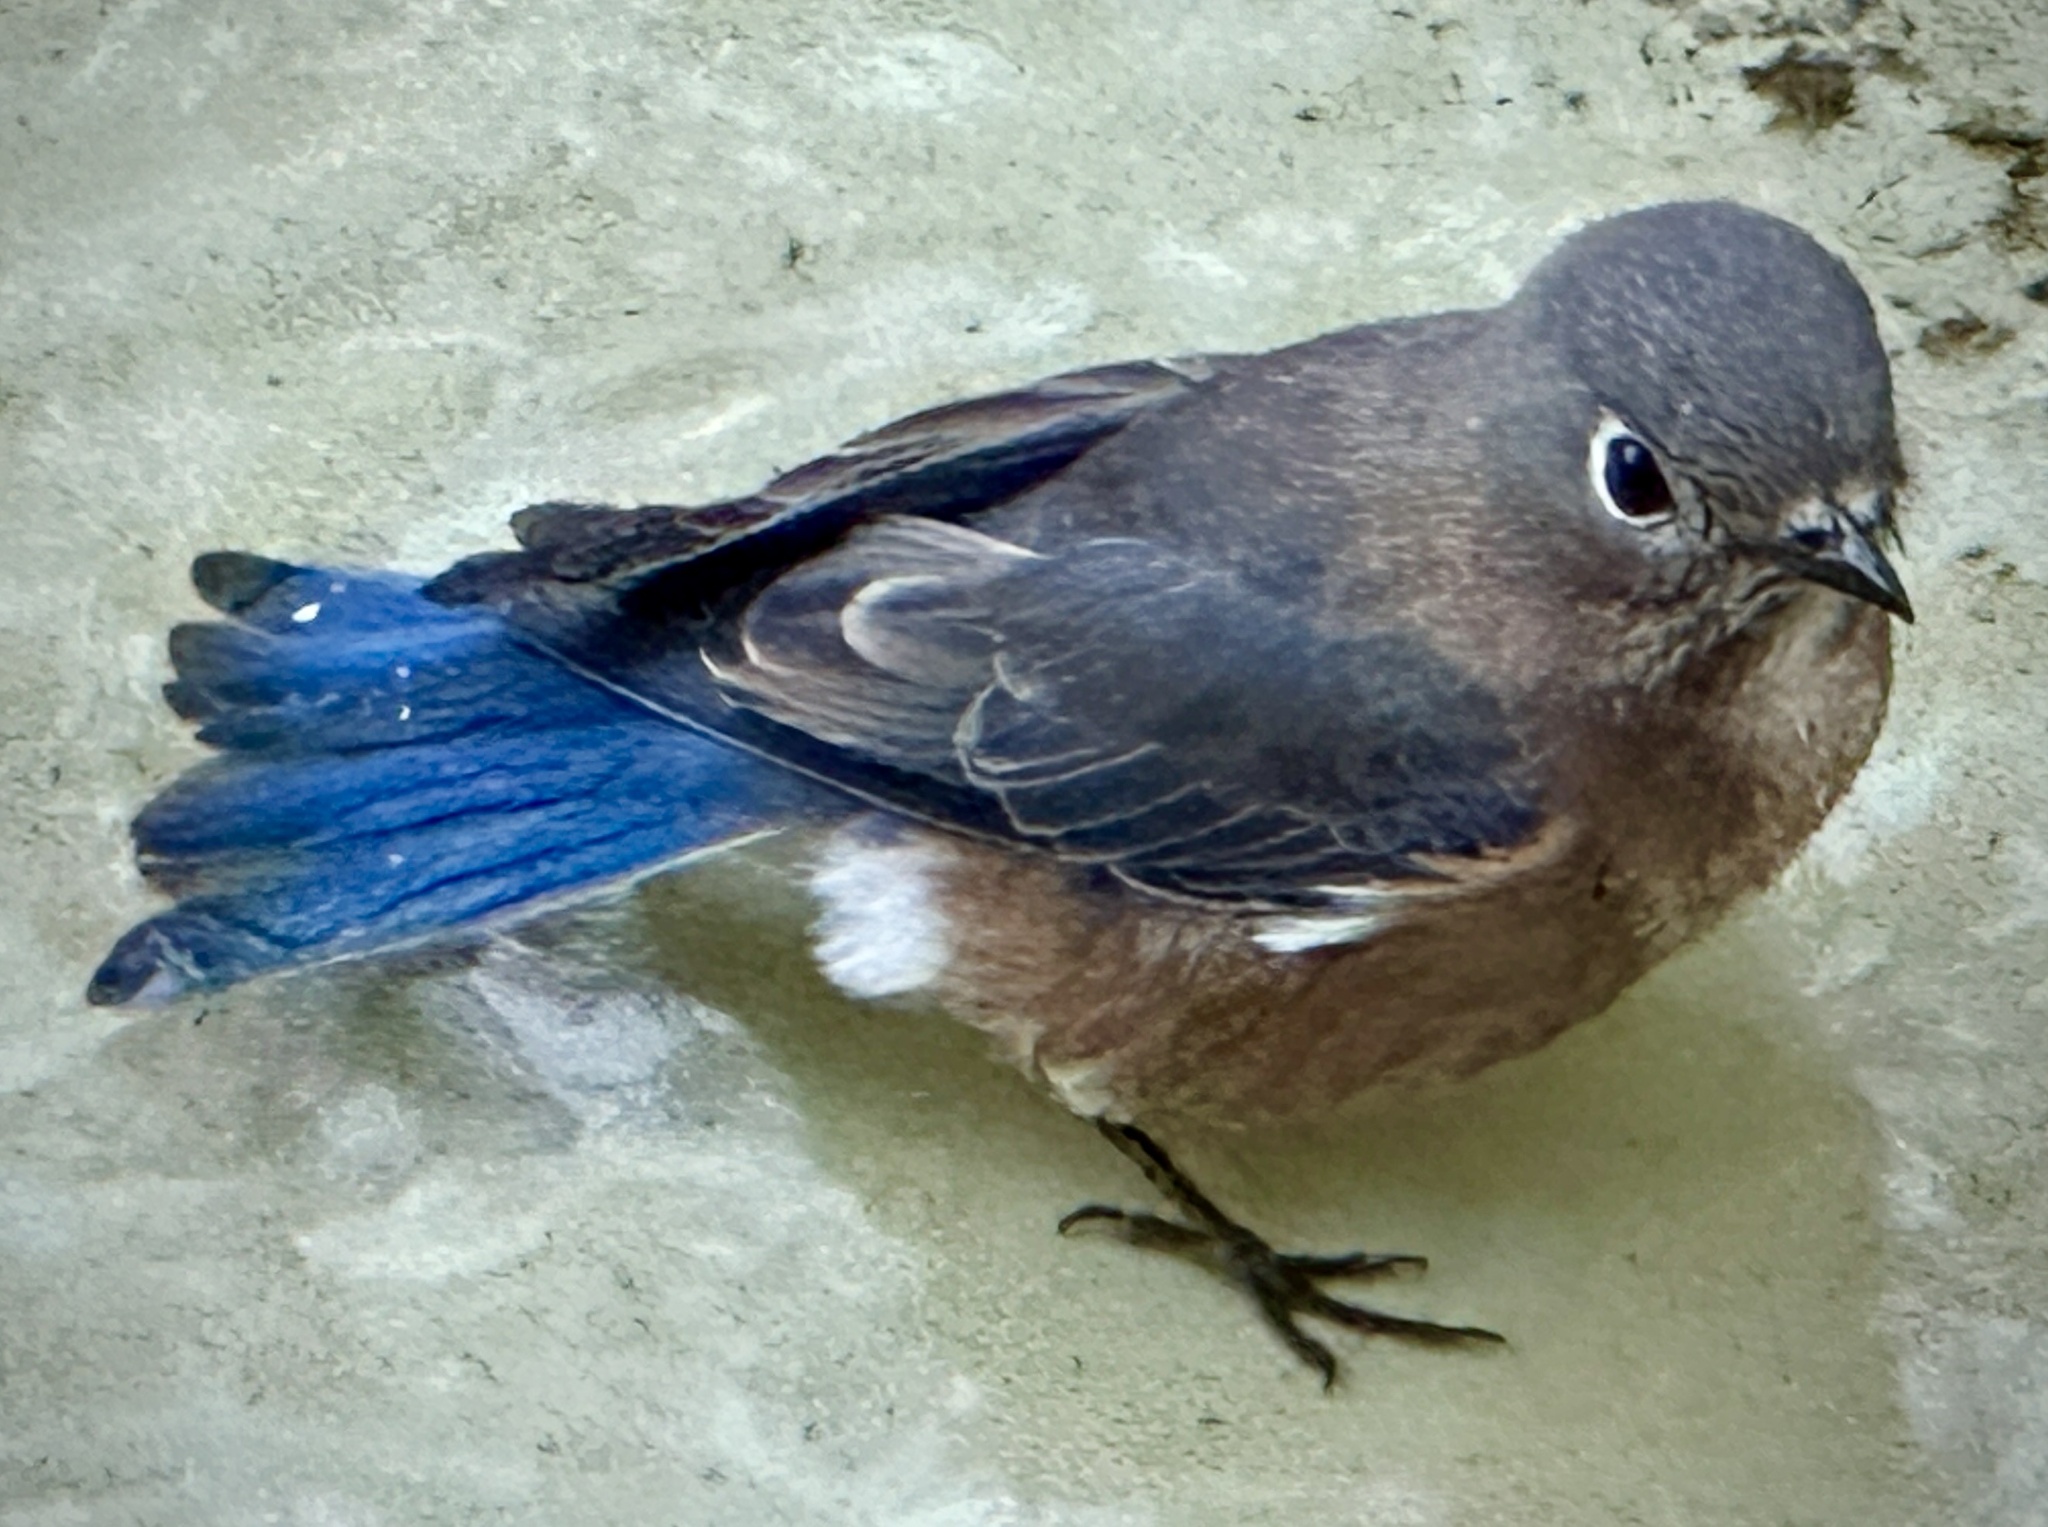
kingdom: Animalia
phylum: Chordata
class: Aves
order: Passeriformes
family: Turdidae
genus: Sialia
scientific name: Sialia sialis
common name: Eastern bluebird
